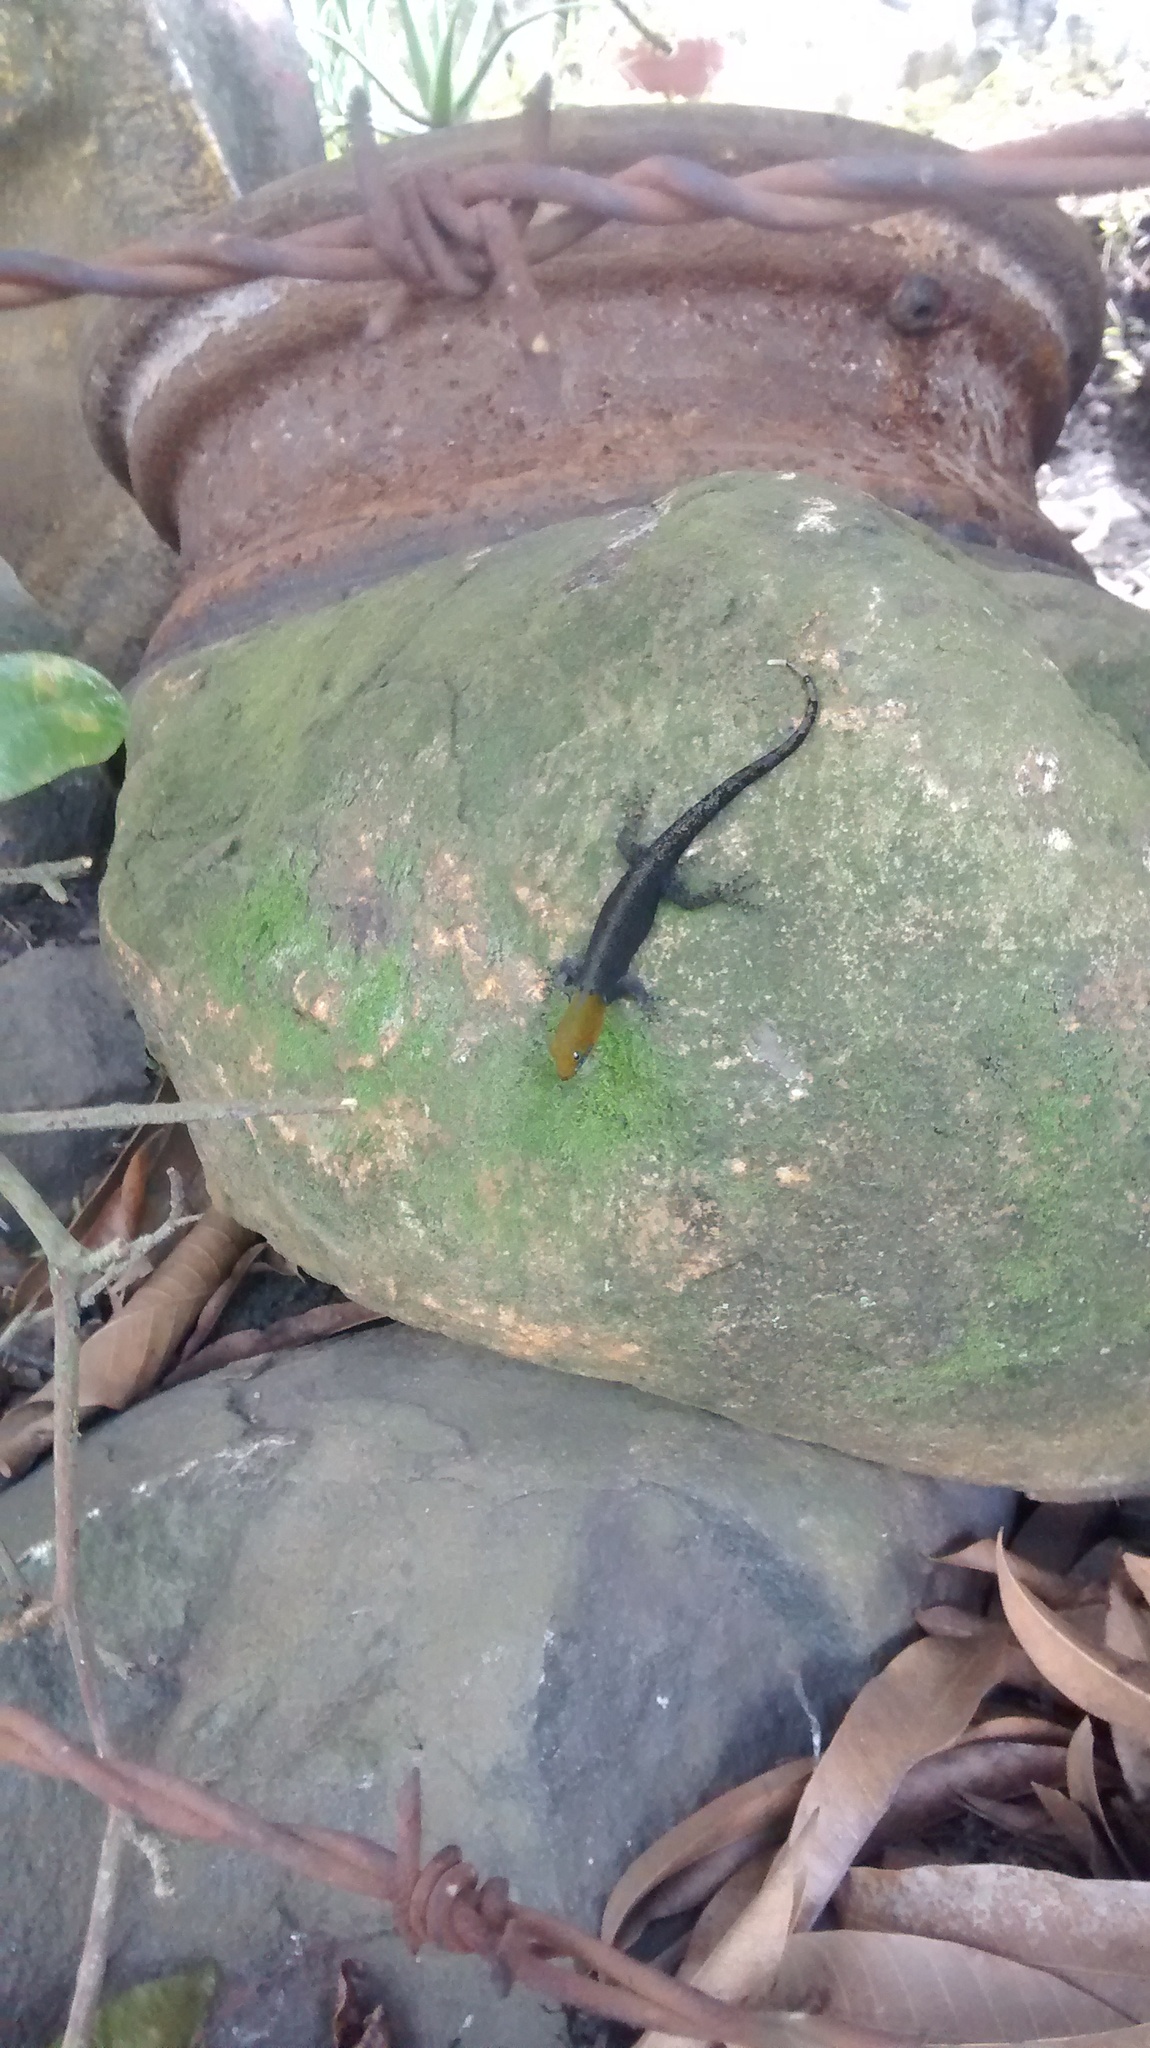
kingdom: Animalia
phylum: Chordata
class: Squamata
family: Sphaerodactylidae
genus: Gonatodes
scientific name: Gonatodes albogularis
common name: Yellow-headed gecko
